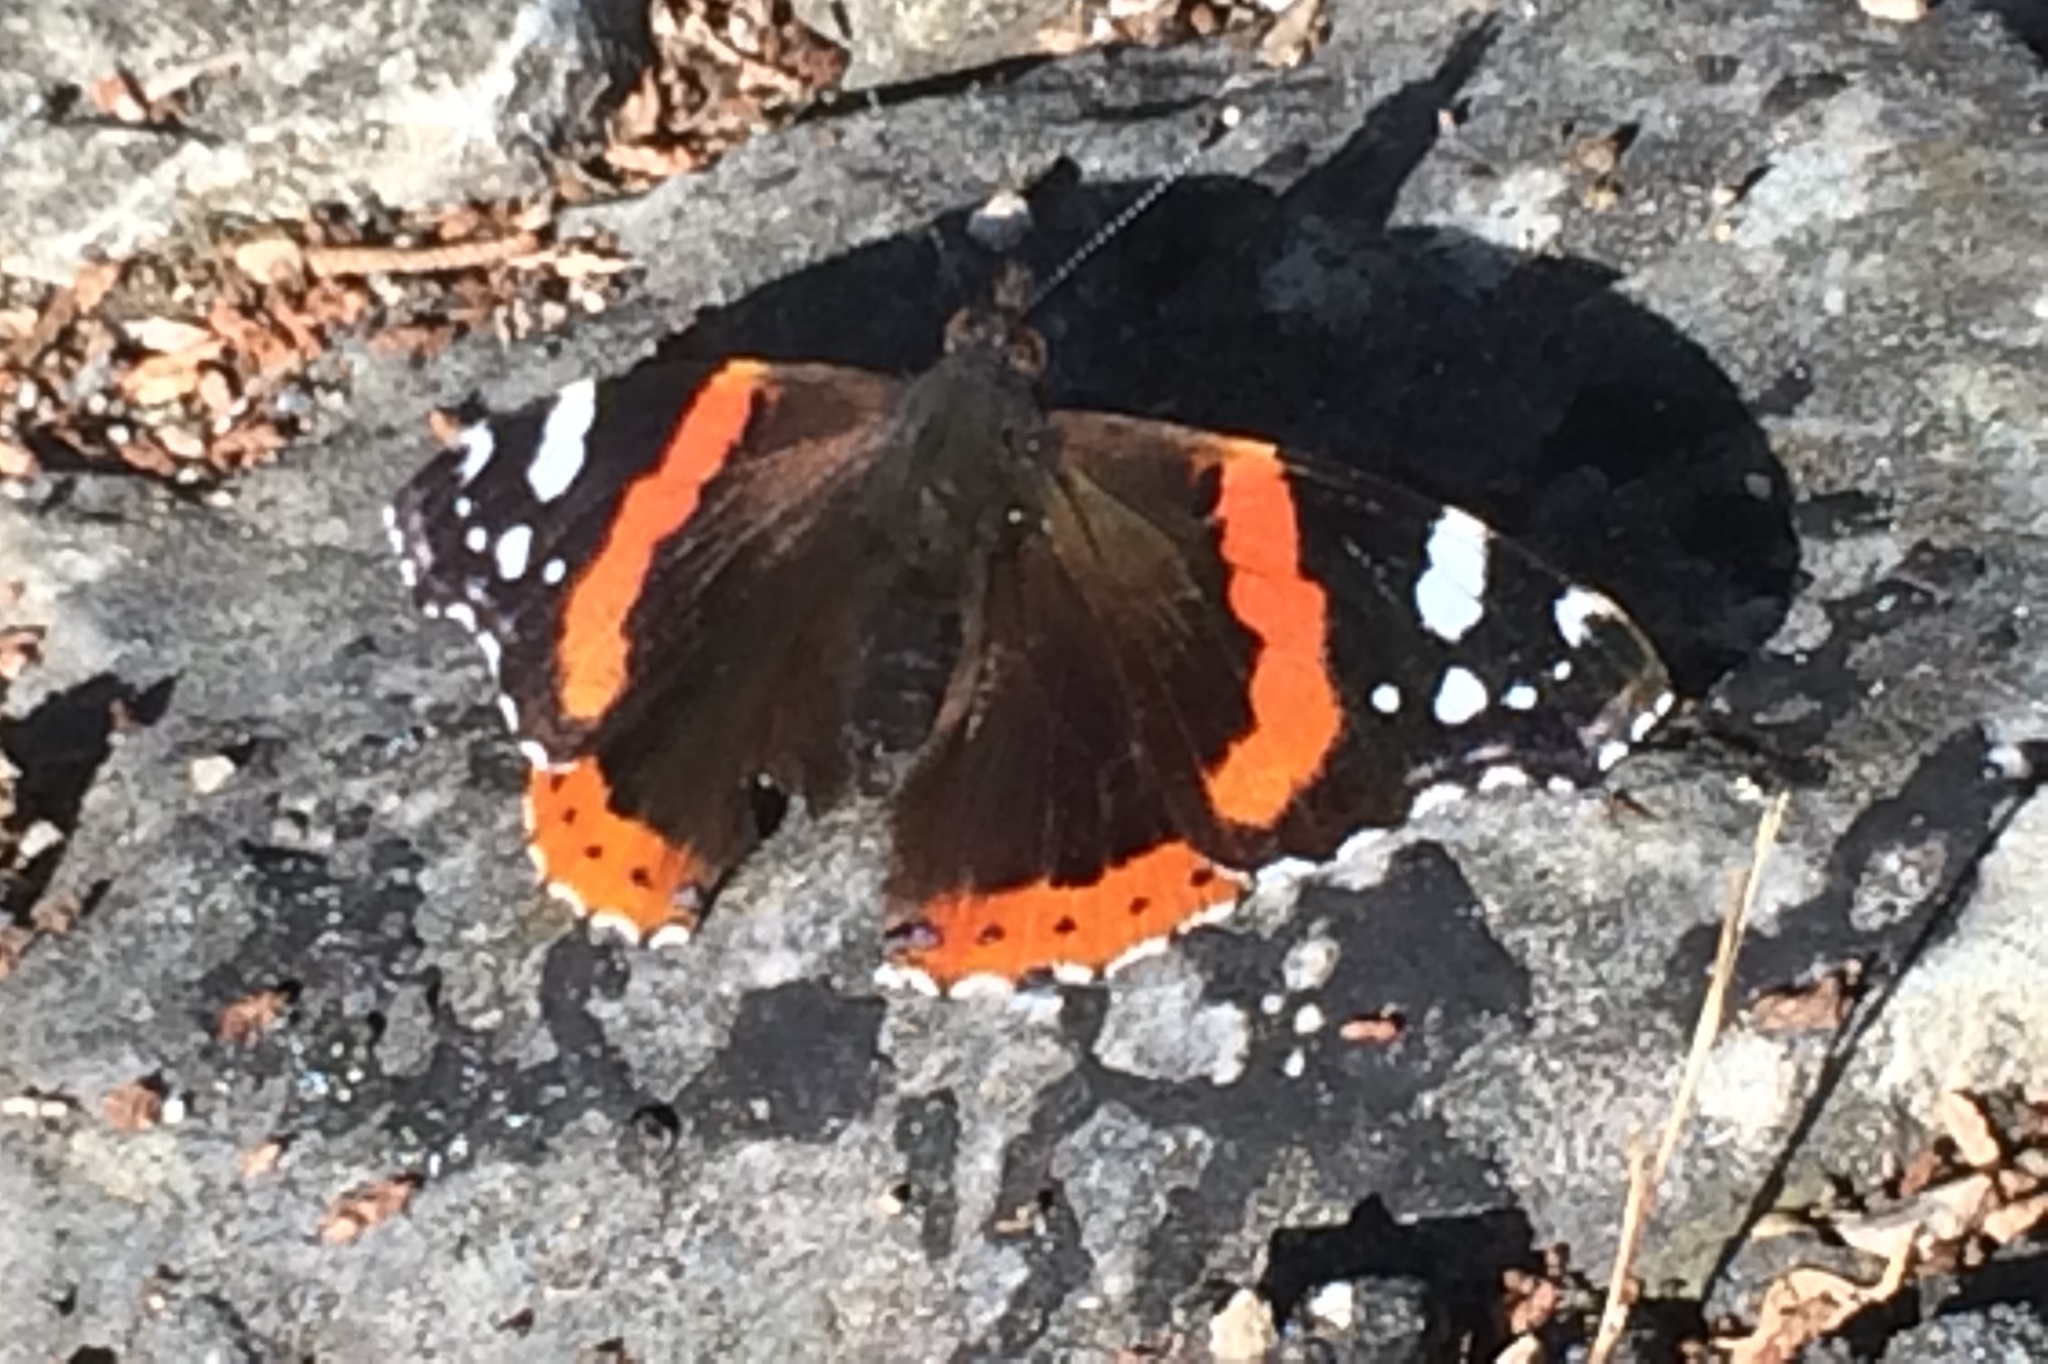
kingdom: Animalia
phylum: Arthropoda
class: Insecta
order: Lepidoptera
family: Nymphalidae
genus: Vanessa
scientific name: Vanessa atalanta
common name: Red admiral
